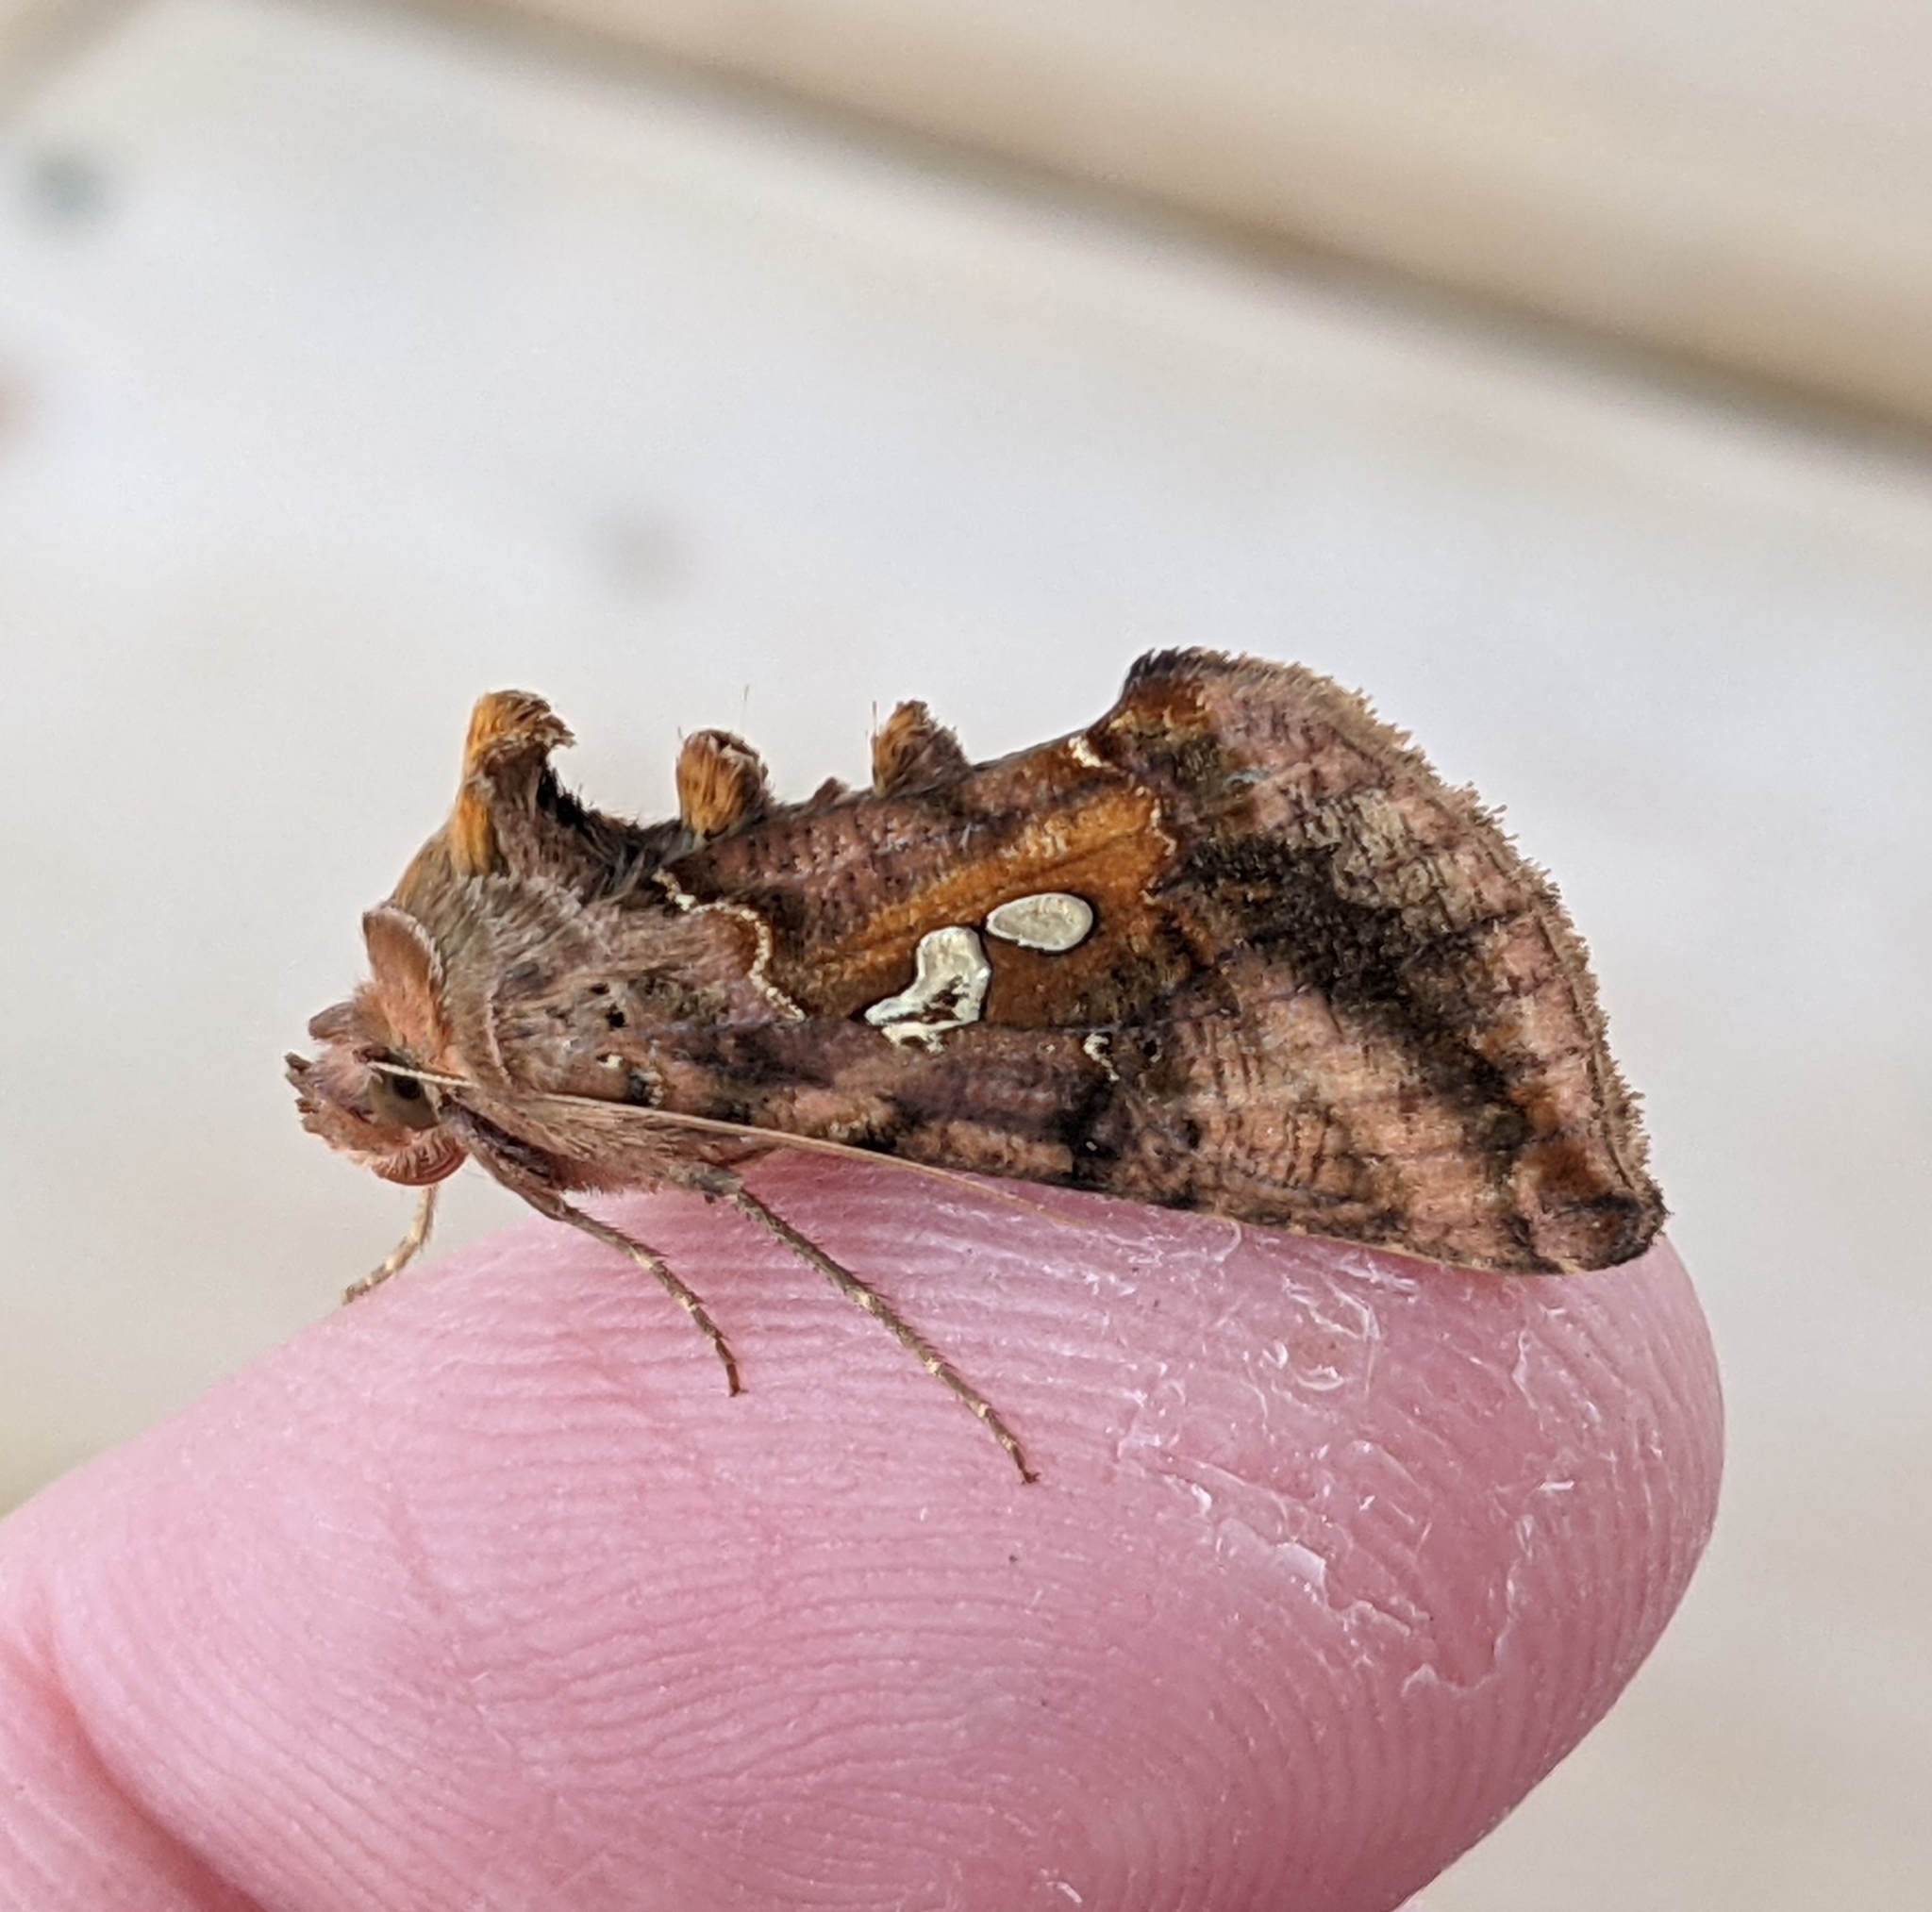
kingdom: Animalia
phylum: Arthropoda
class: Insecta
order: Lepidoptera
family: Noctuidae
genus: Autographa
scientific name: Autographa bimaculata
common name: Double-spotted spangle
